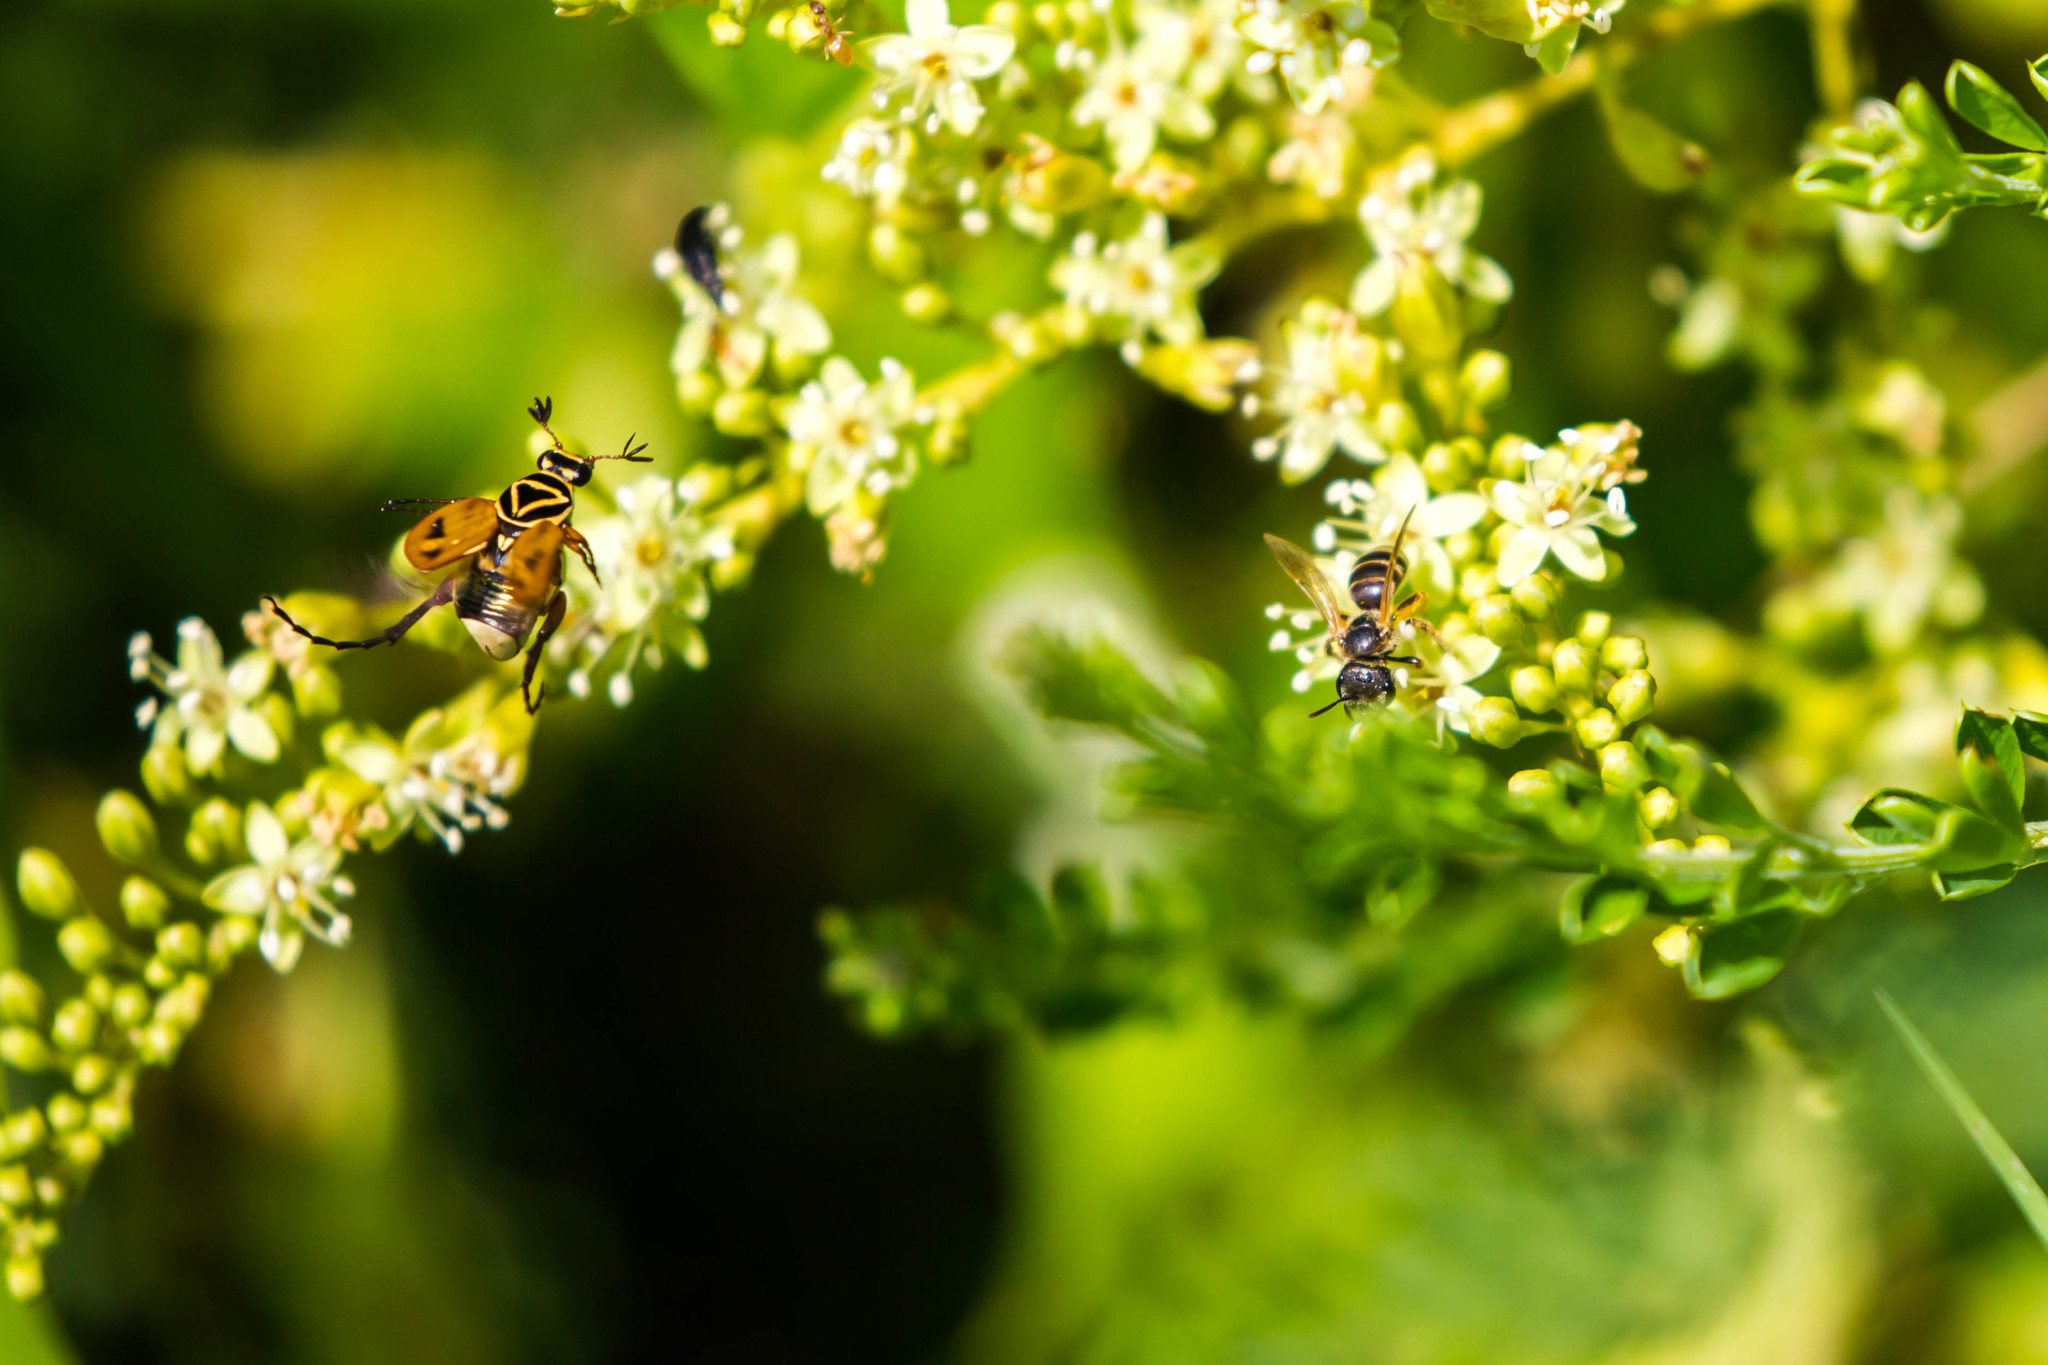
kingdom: Animalia
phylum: Arthropoda
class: Insecta
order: Coleoptera
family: Scarabaeidae
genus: Trigonopeltastes
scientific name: Trigonopeltastes delta
